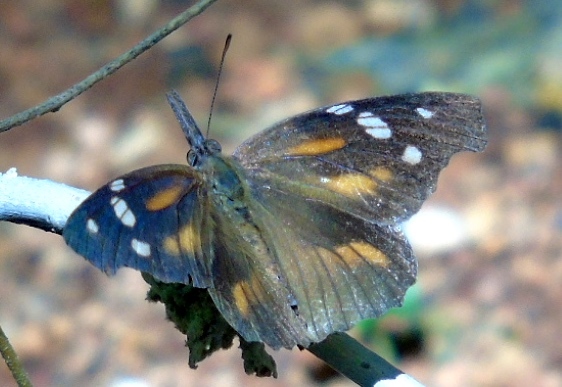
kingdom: Animalia
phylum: Arthropoda
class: Insecta
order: Lepidoptera
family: Nymphalidae
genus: Libytheana
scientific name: Libytheana carinenta
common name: American snout
